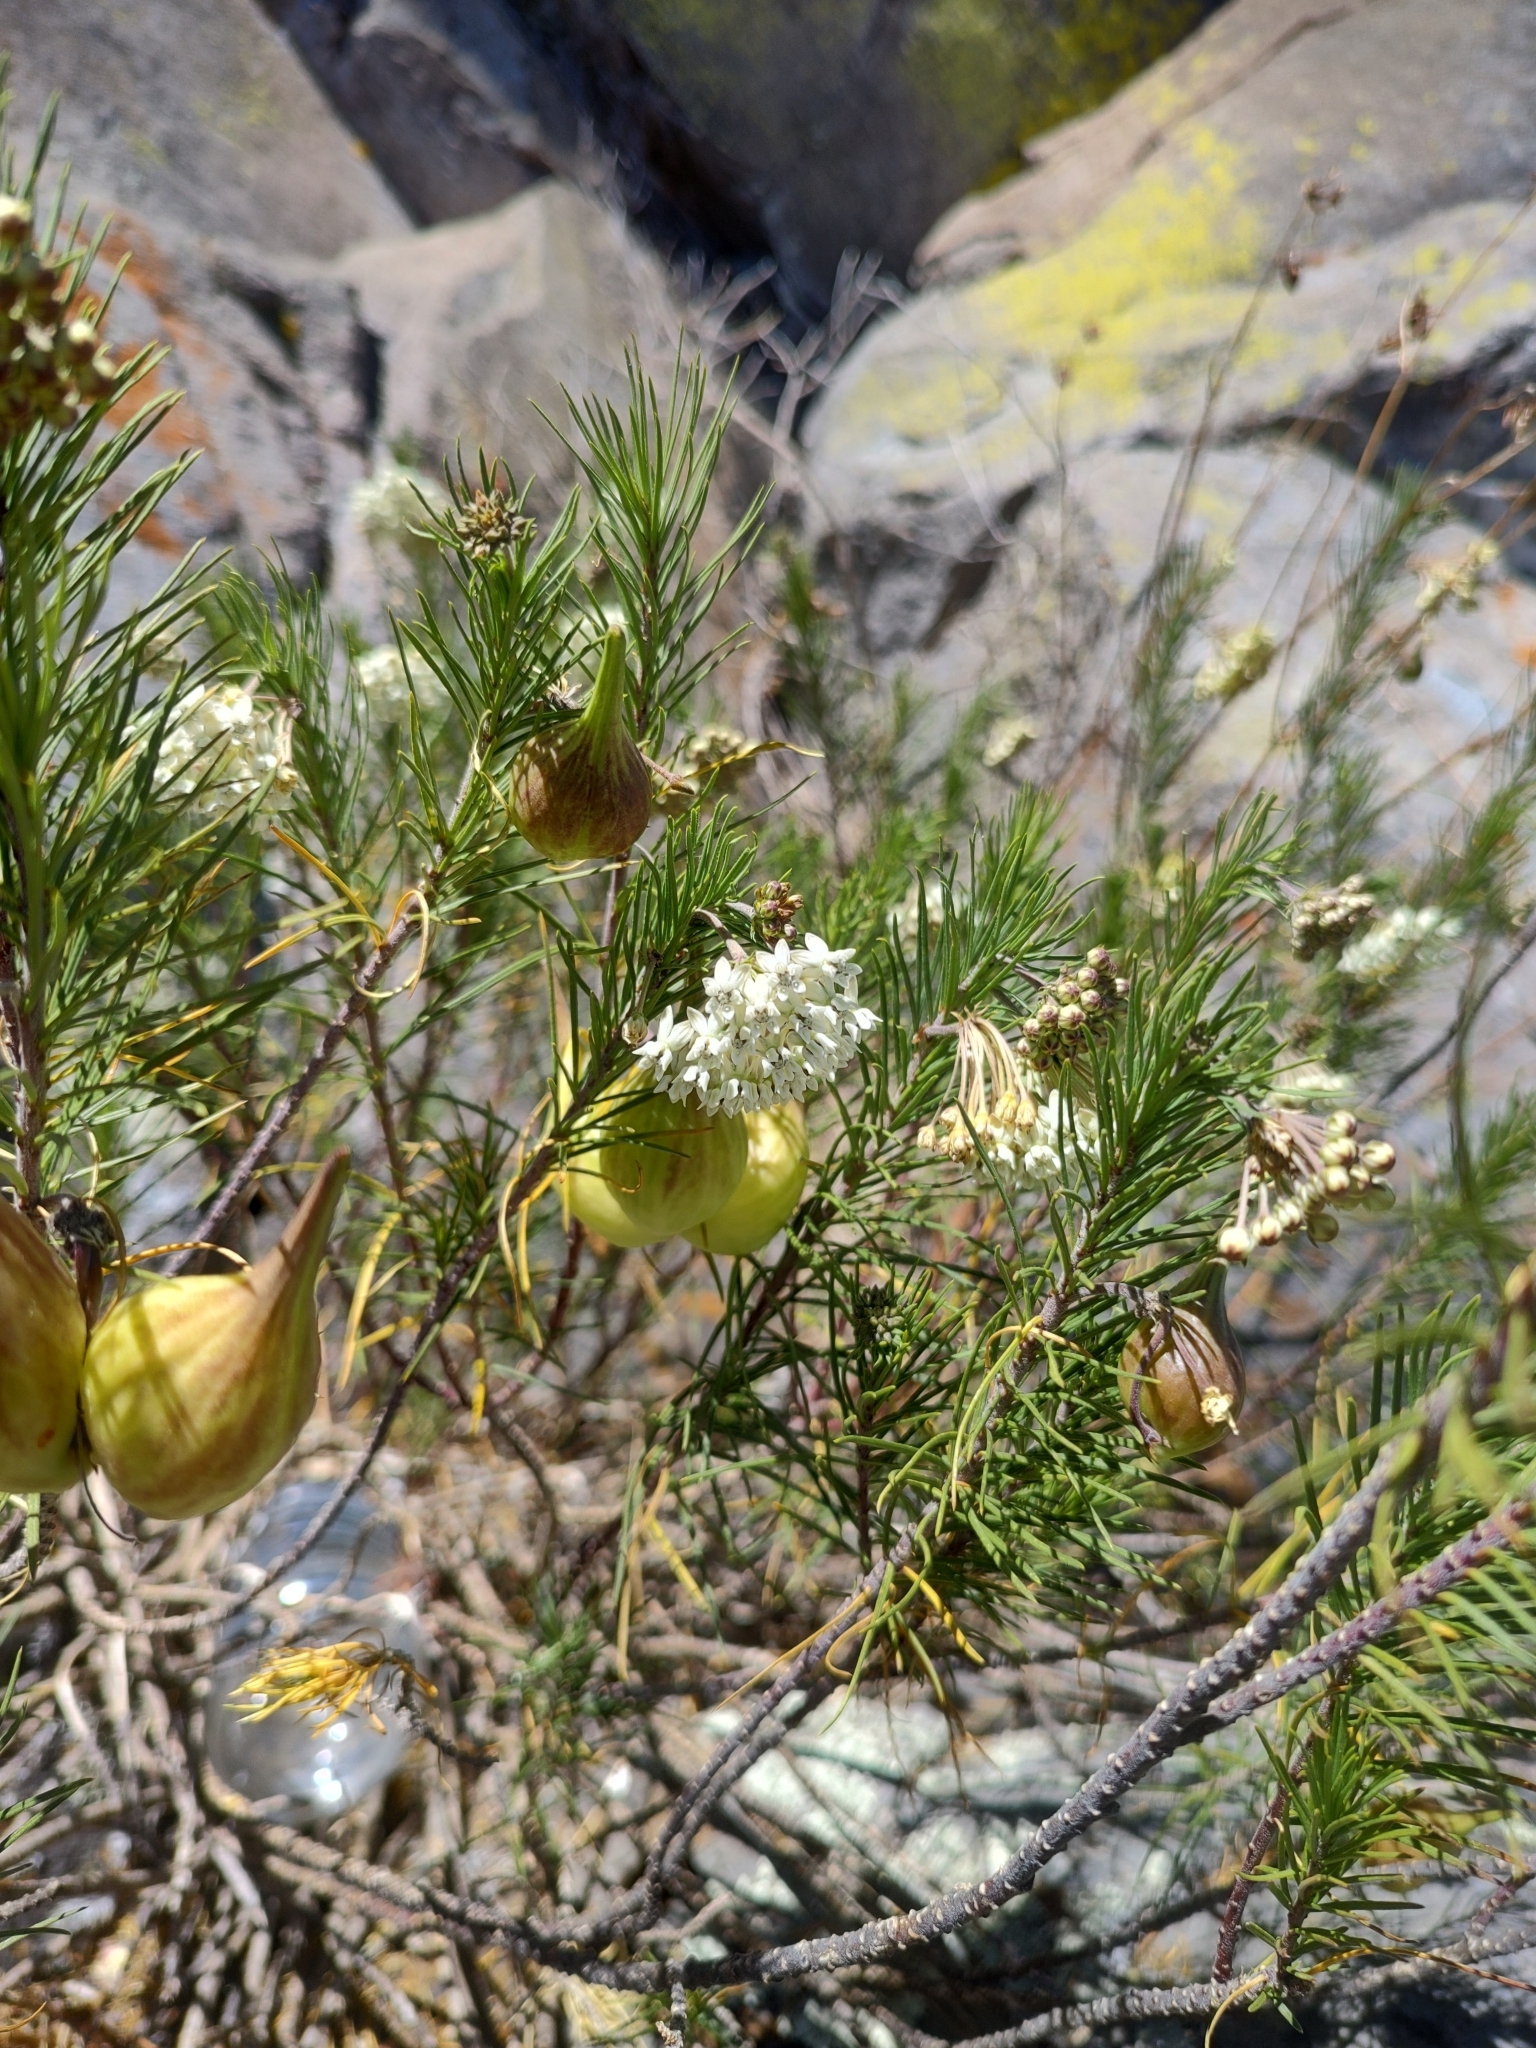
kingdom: Plantae
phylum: Tracheophyta
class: Magnoliopsida
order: Gentianales
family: Apocynaceae
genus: Asclepias
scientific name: Asclepias linaria
